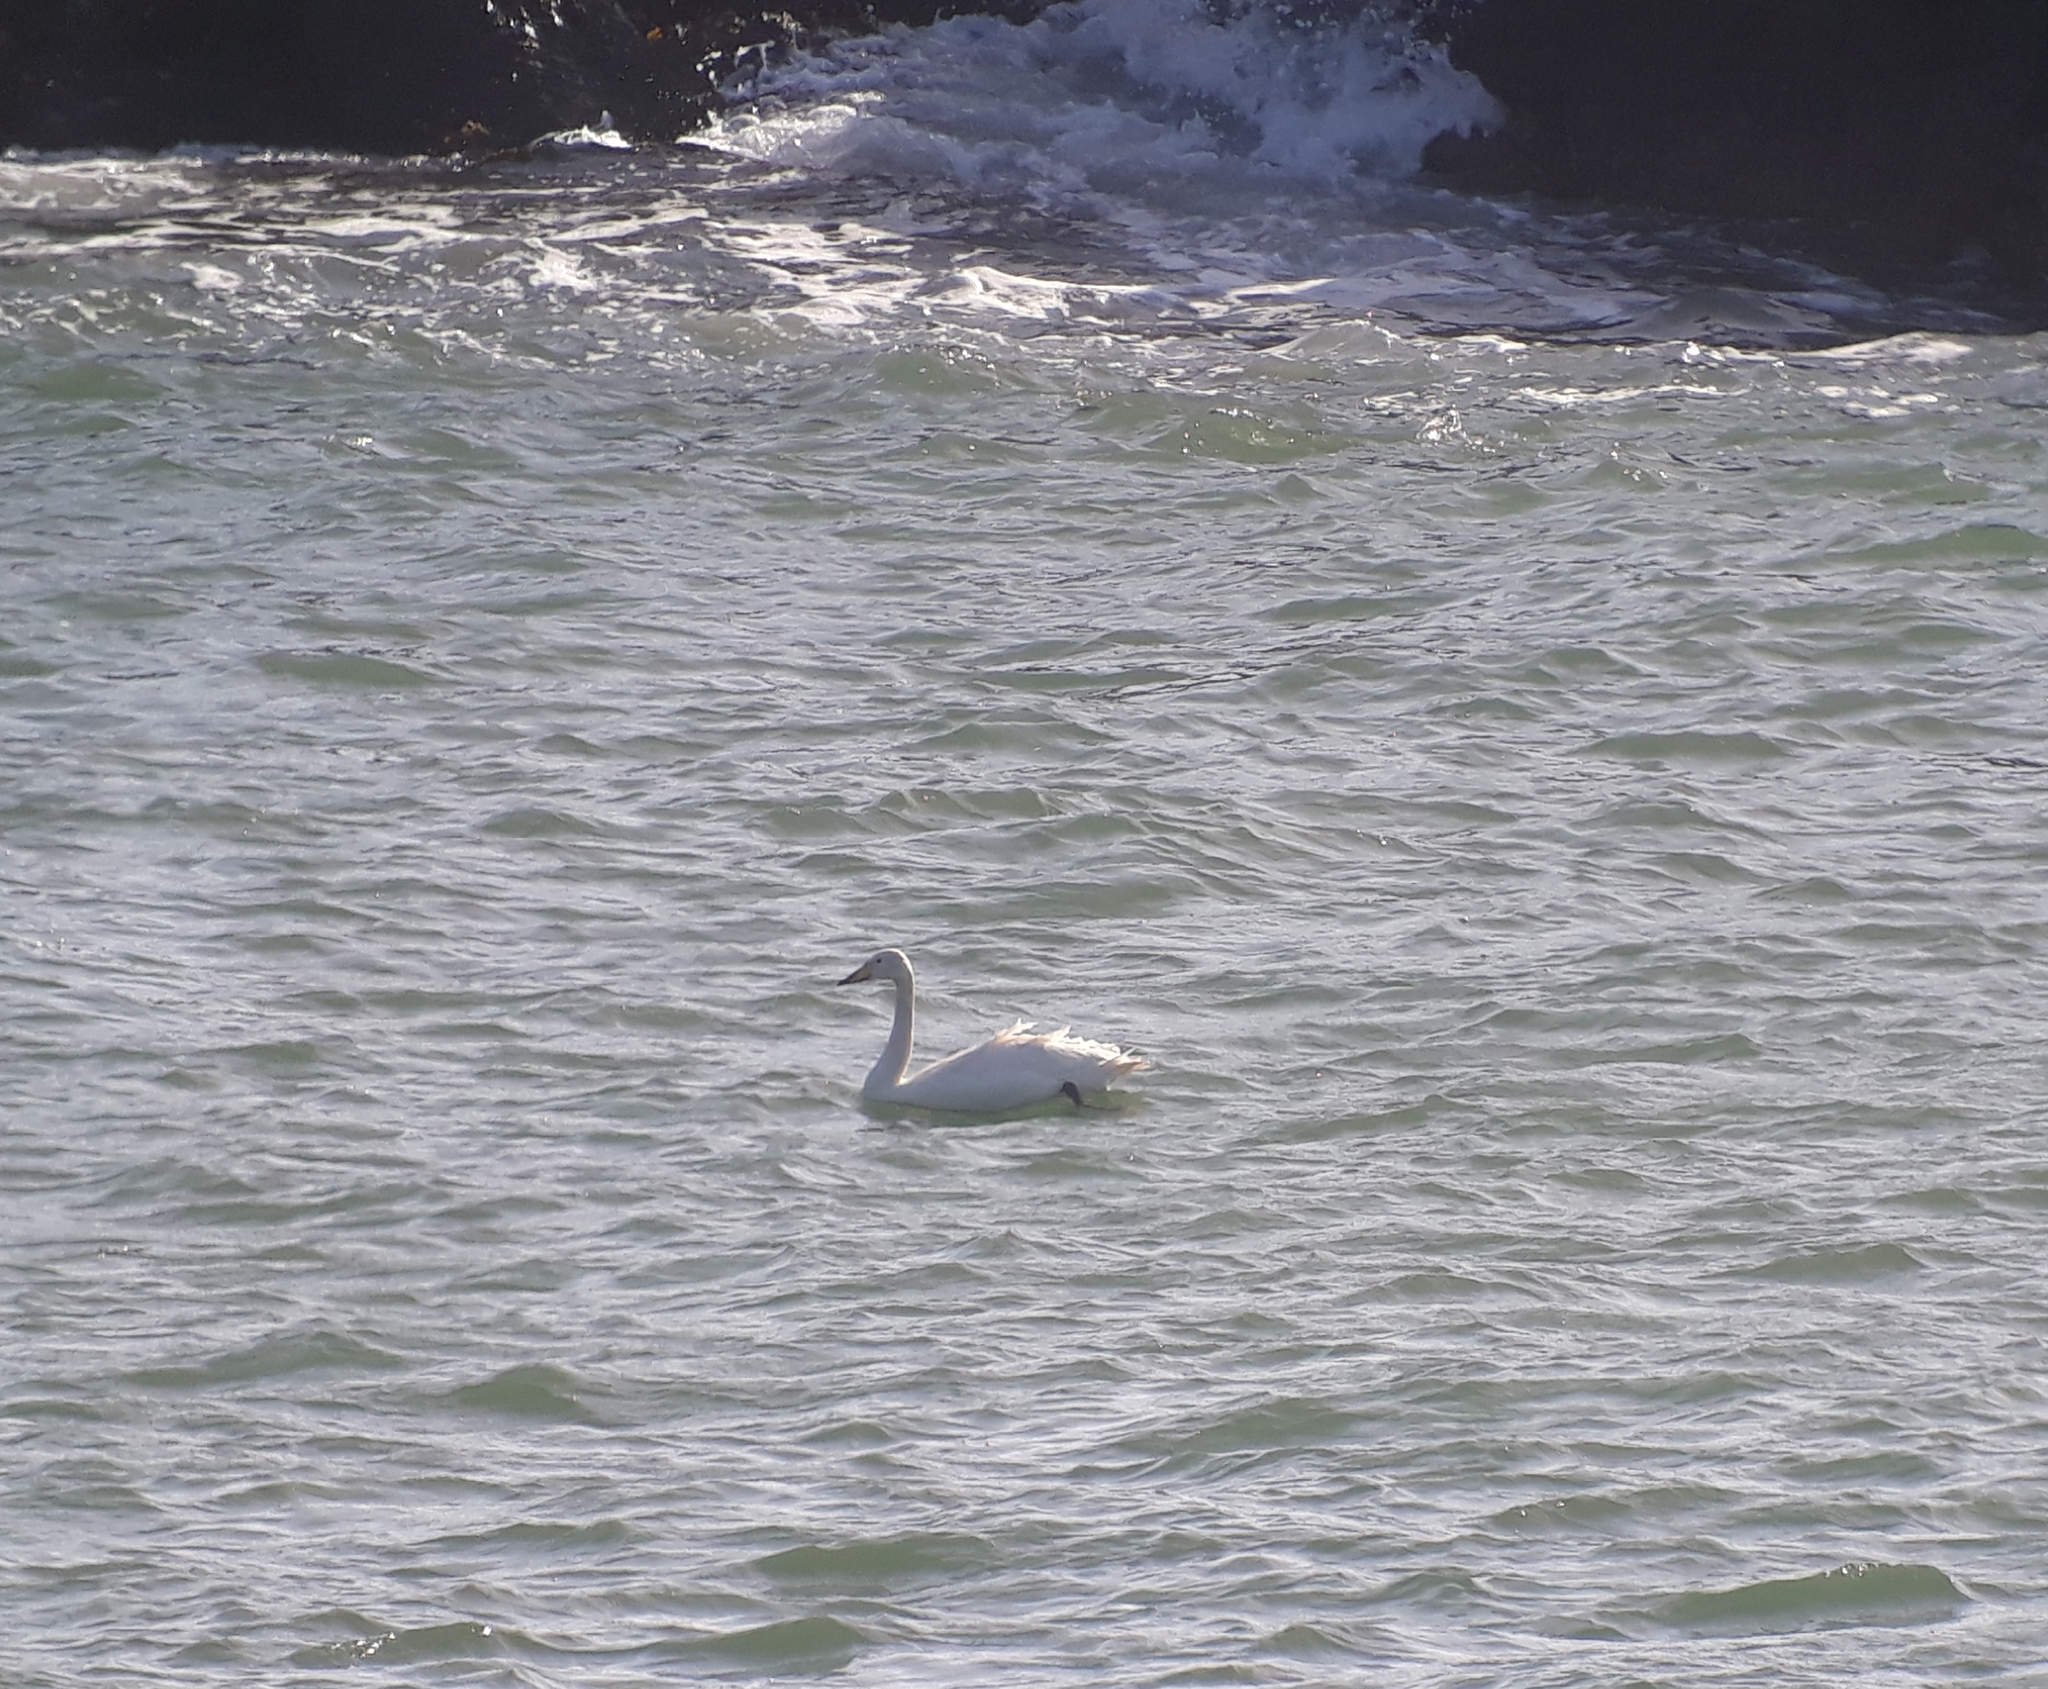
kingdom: Animalia
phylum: Chordata
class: Aves
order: Anseriformes
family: Anatidae
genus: Cygnus
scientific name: Cygnus cygnus
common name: Whooper swan
